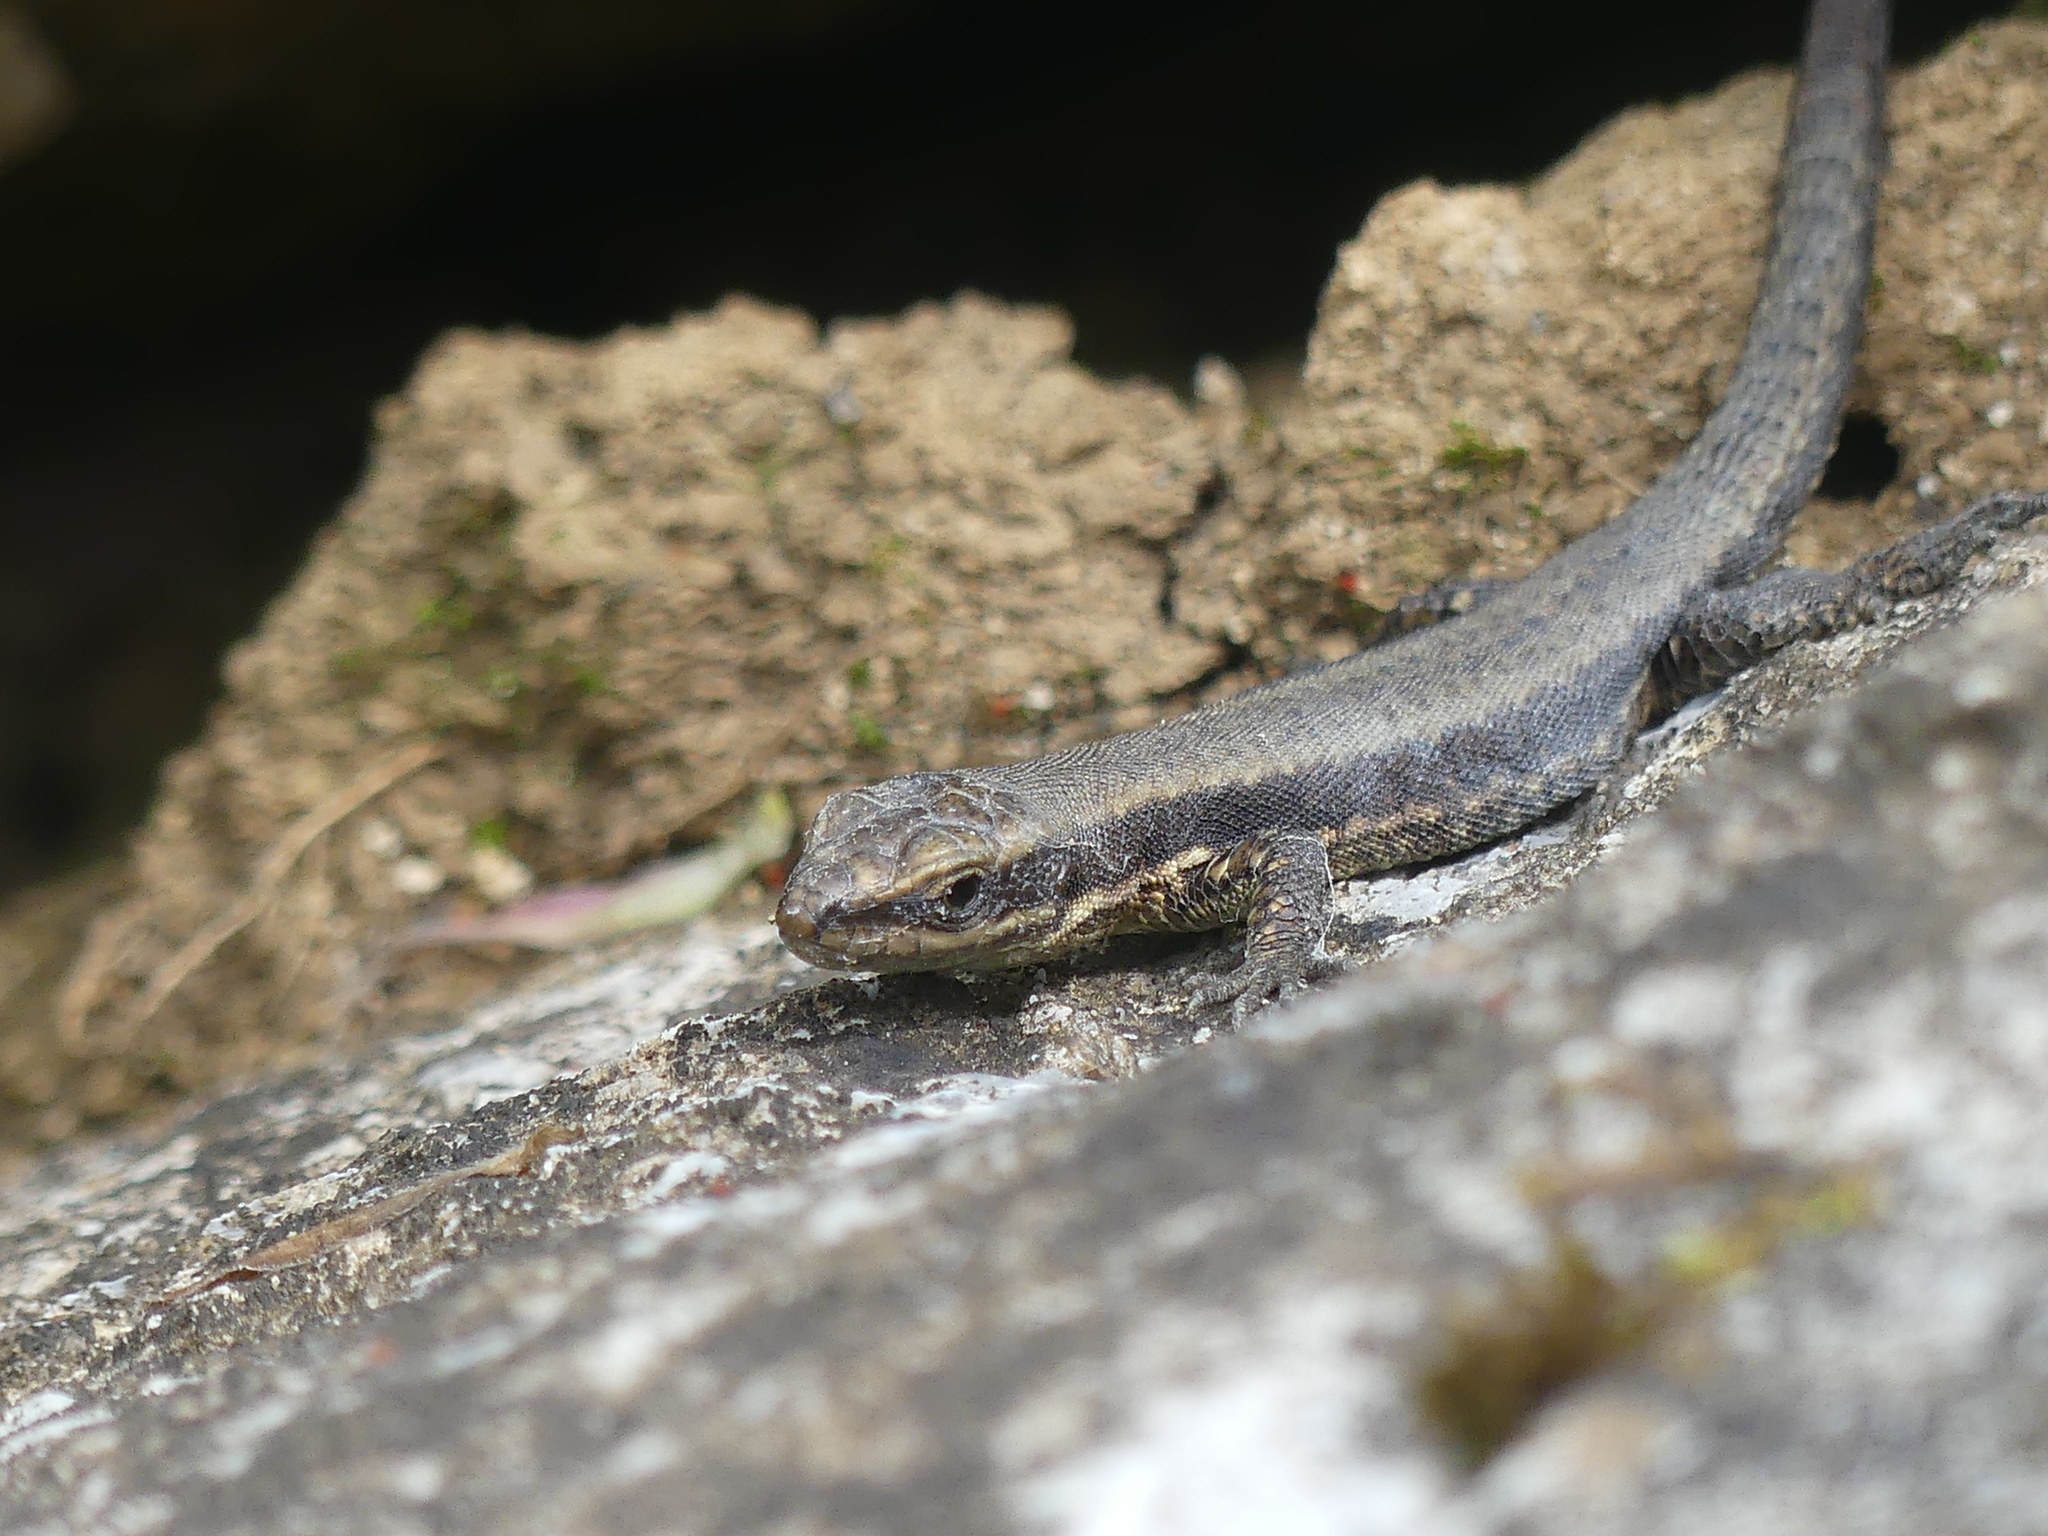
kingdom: Animalia
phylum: Chordata
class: Squamata
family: Lacertidae
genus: Podarcis
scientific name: Podarcis muralis
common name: Common wall lizard
